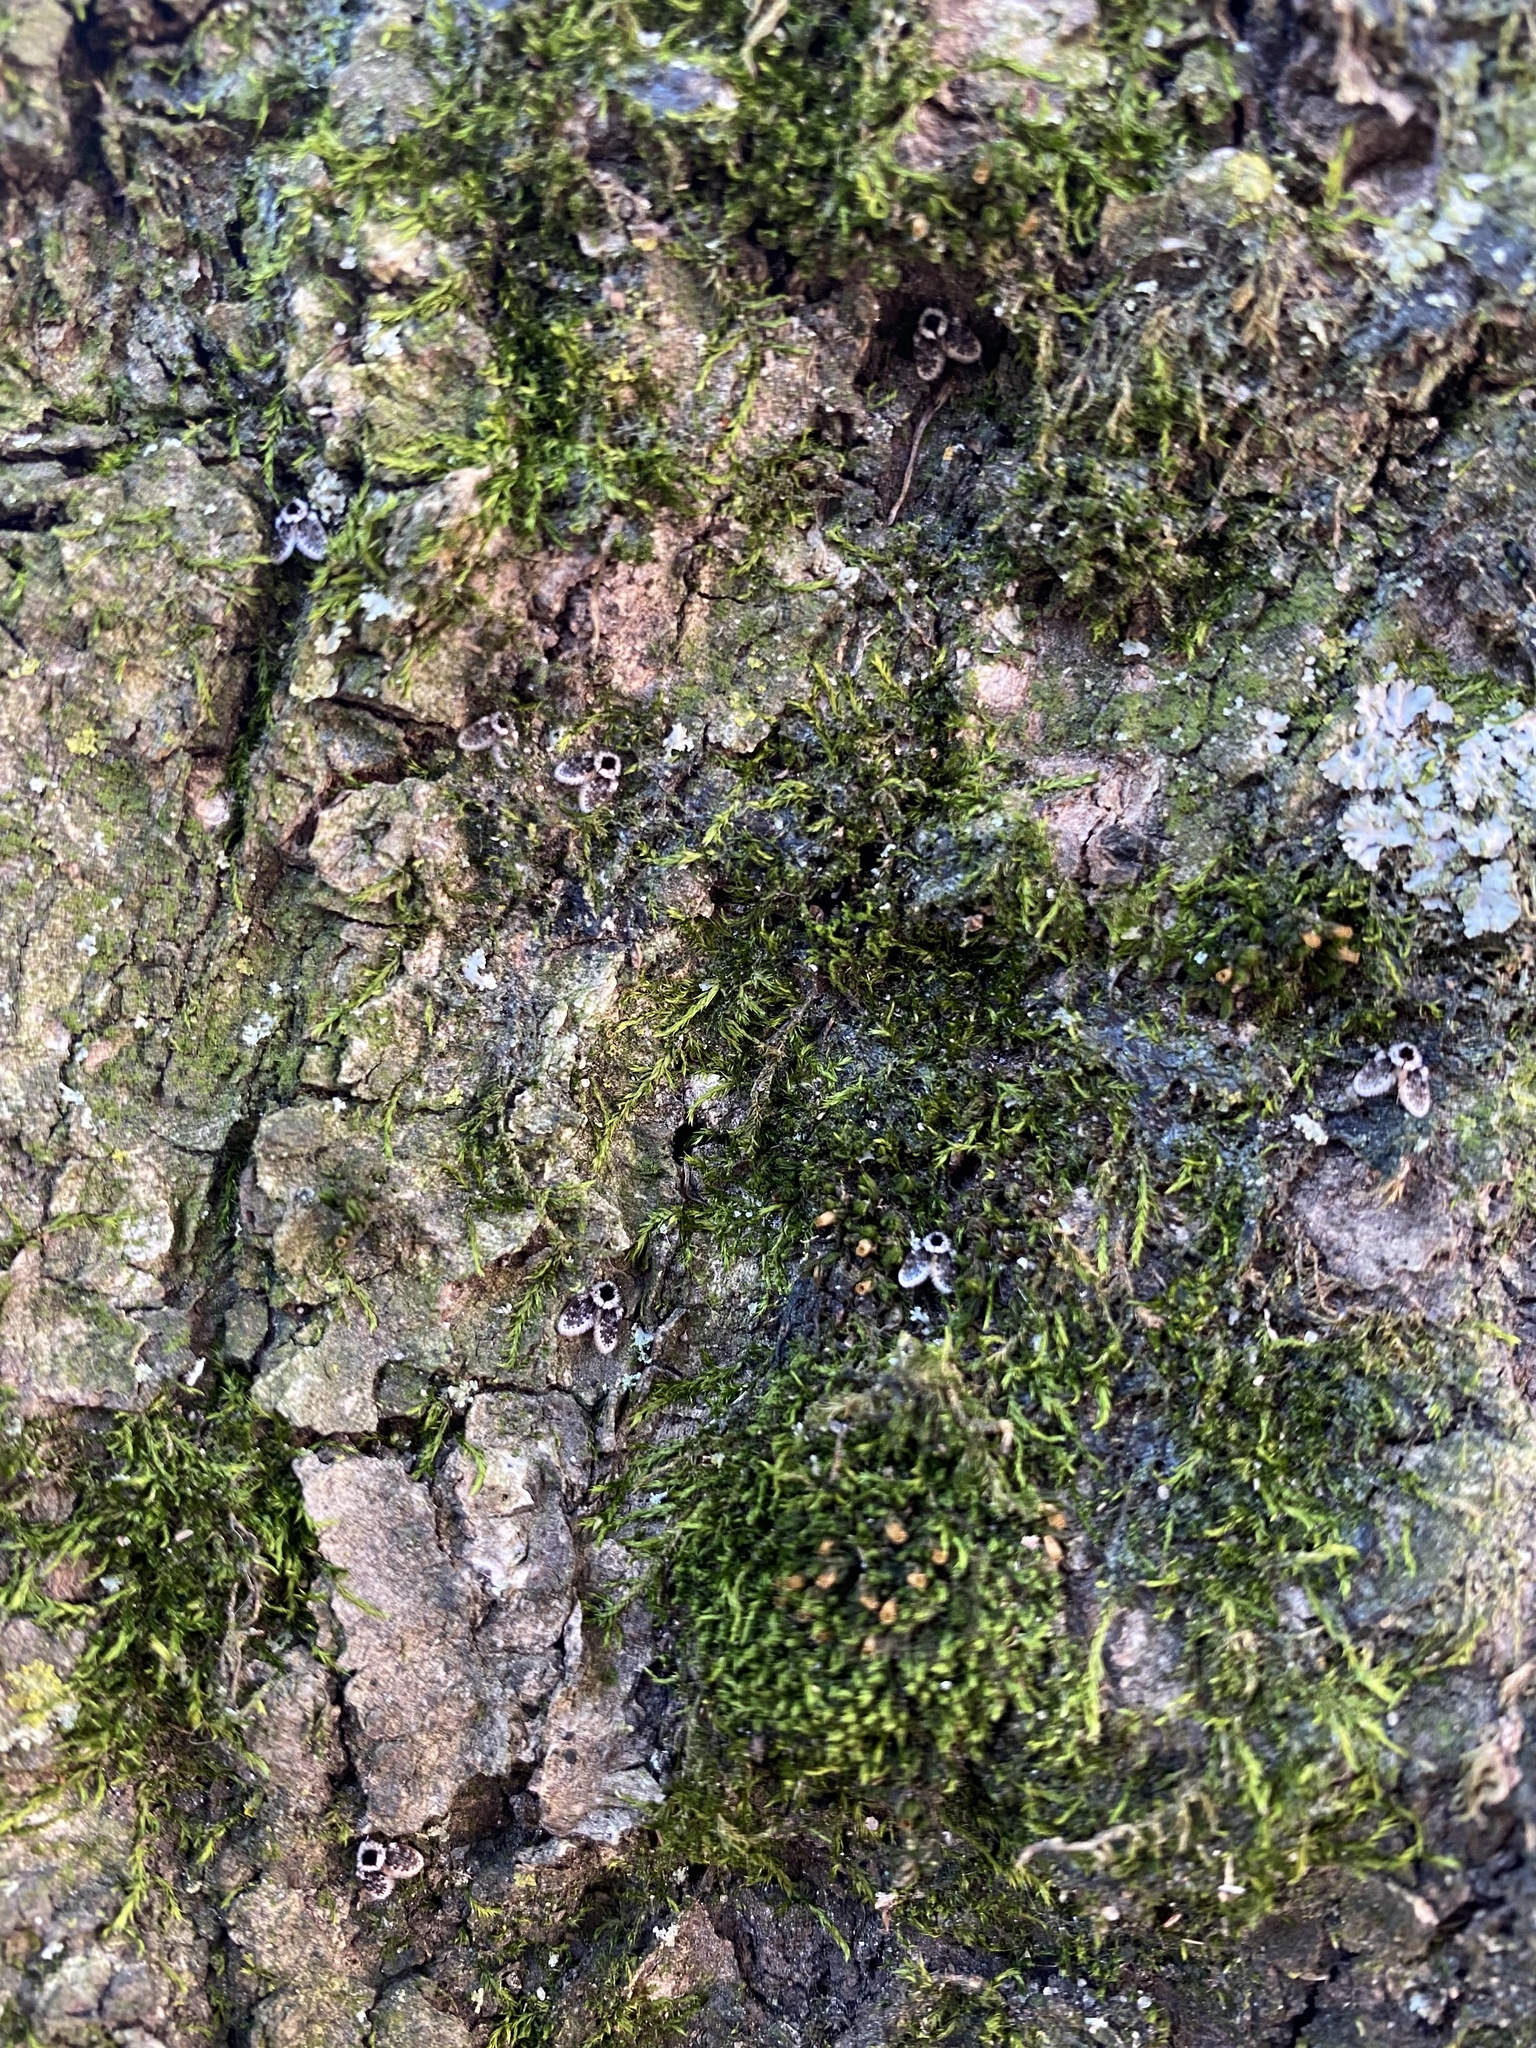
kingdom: Animalia
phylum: Arthropoda
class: Insecta
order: Diptera
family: Psychodidae
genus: Lepiseodina
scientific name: Lepiseodina
